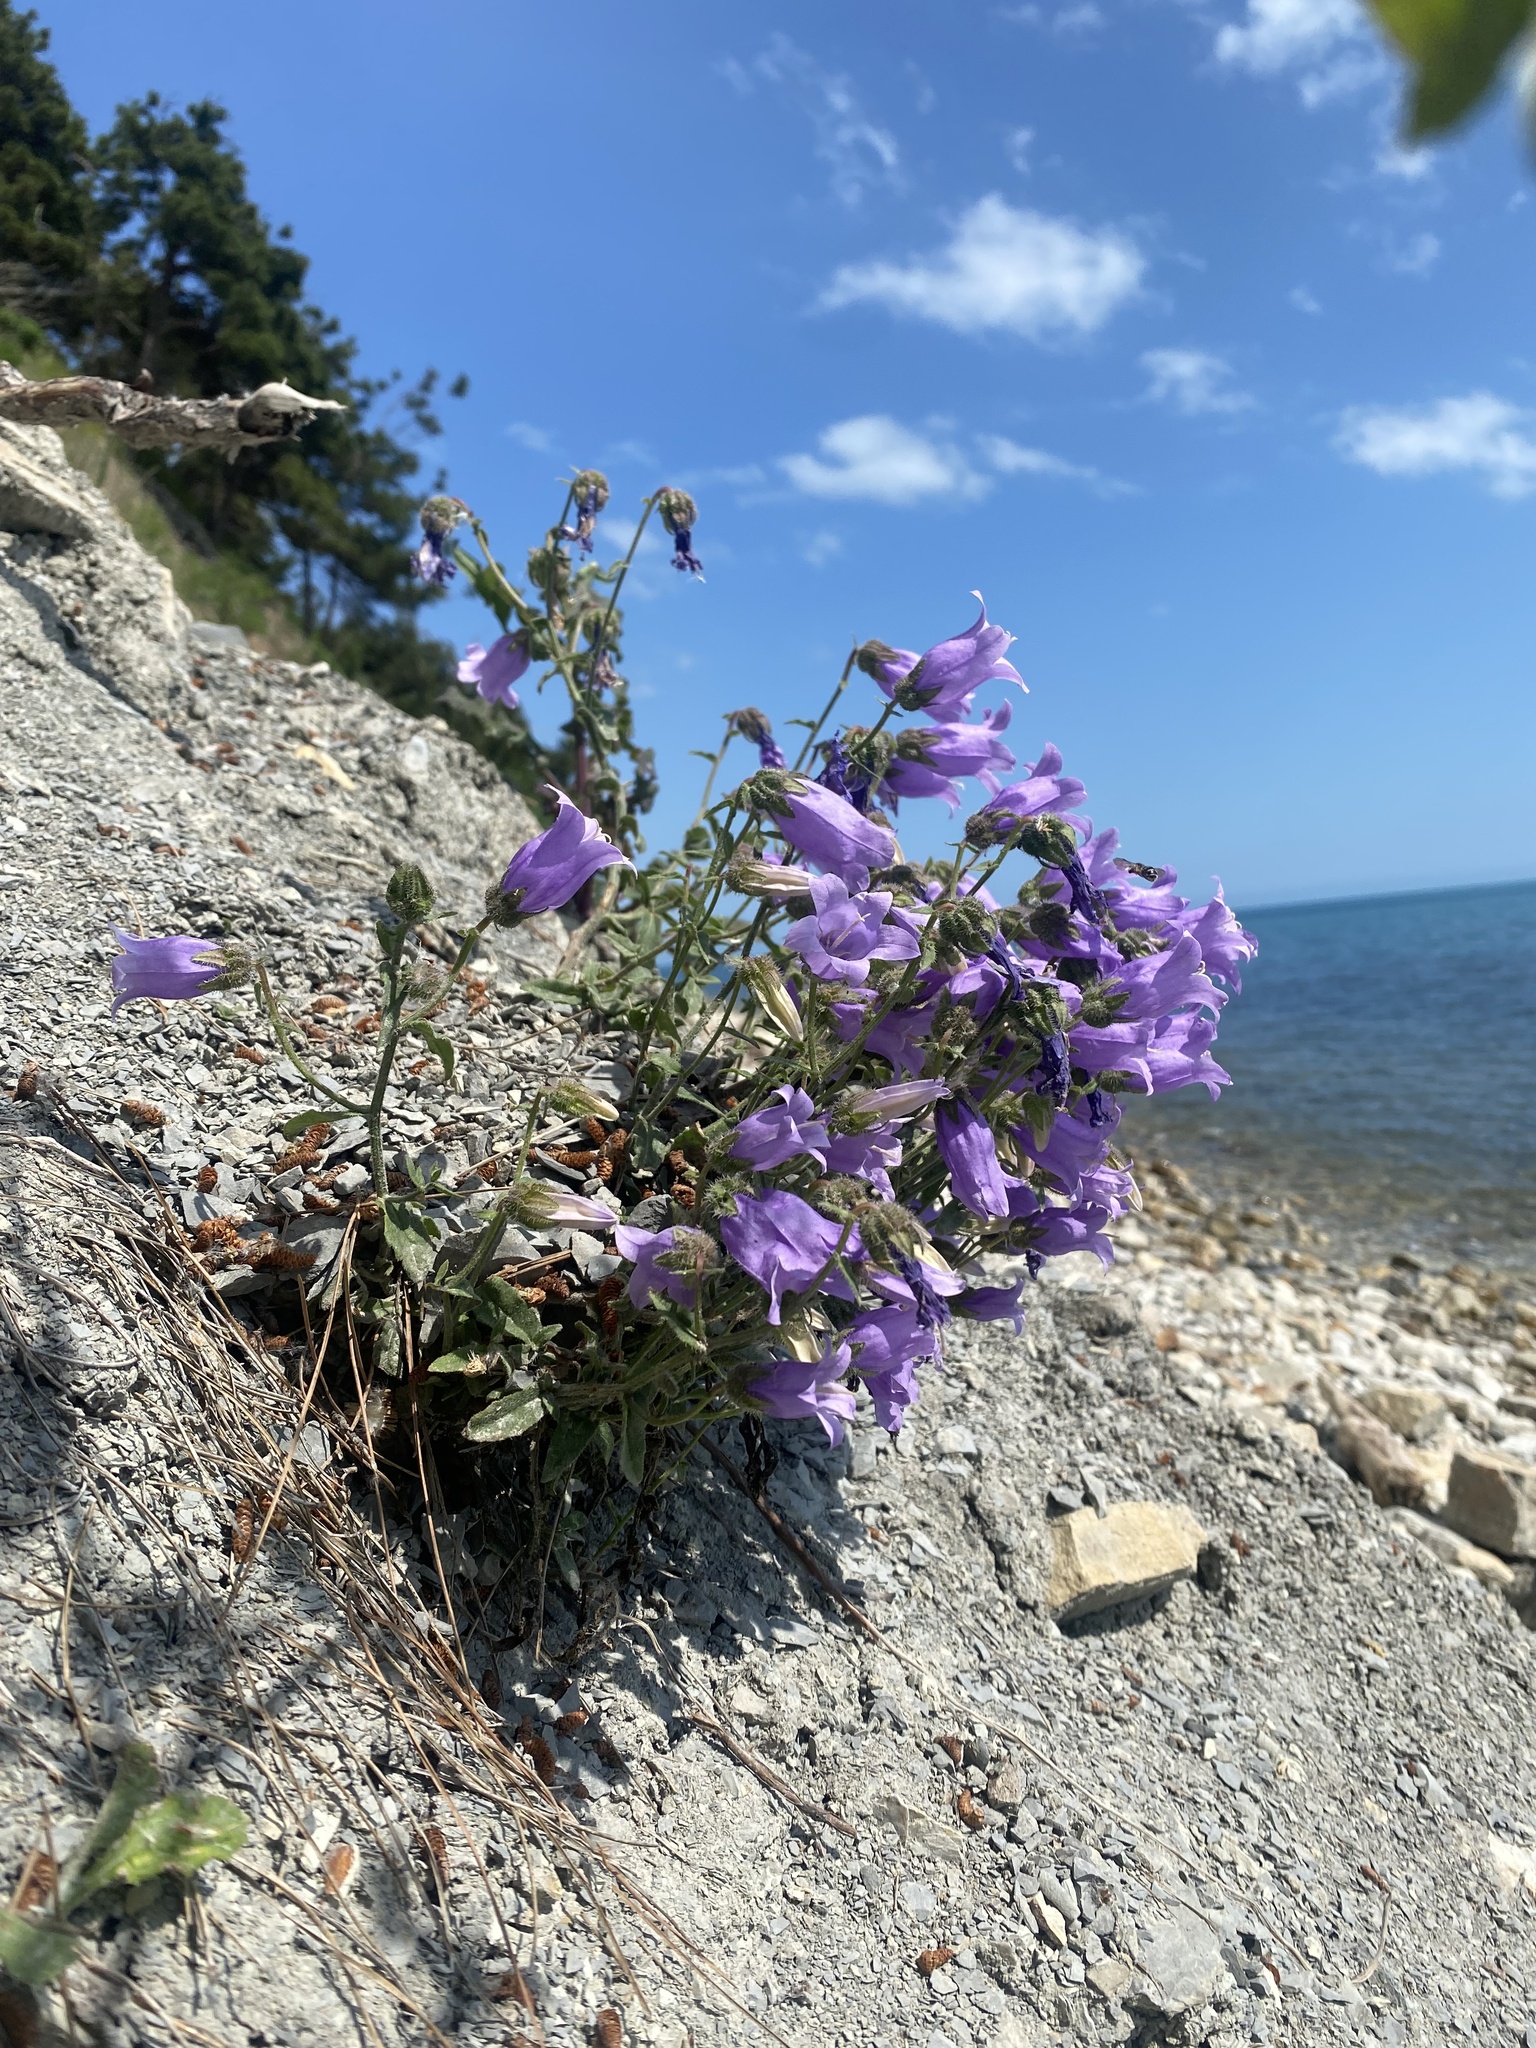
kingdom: Plantae
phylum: Tracheophyta
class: Magnoliopsida
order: Asterales
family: Campanulaceae
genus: Campanula
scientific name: Campanula komarovii
